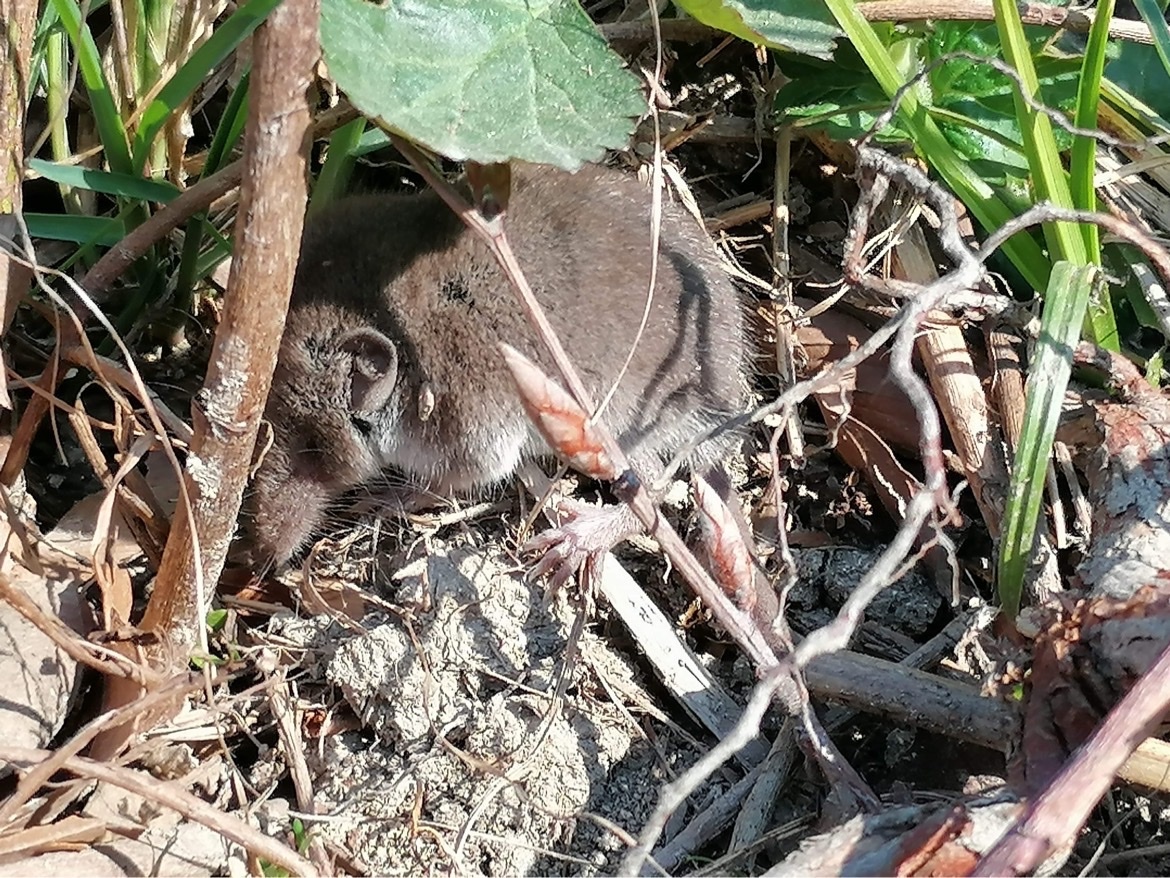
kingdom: Animalia
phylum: Chordata
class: Mammalia
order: Soricomorpha
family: Soricidae
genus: Crocidura
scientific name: Crocidura russula
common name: Greater white-toothed shrew
